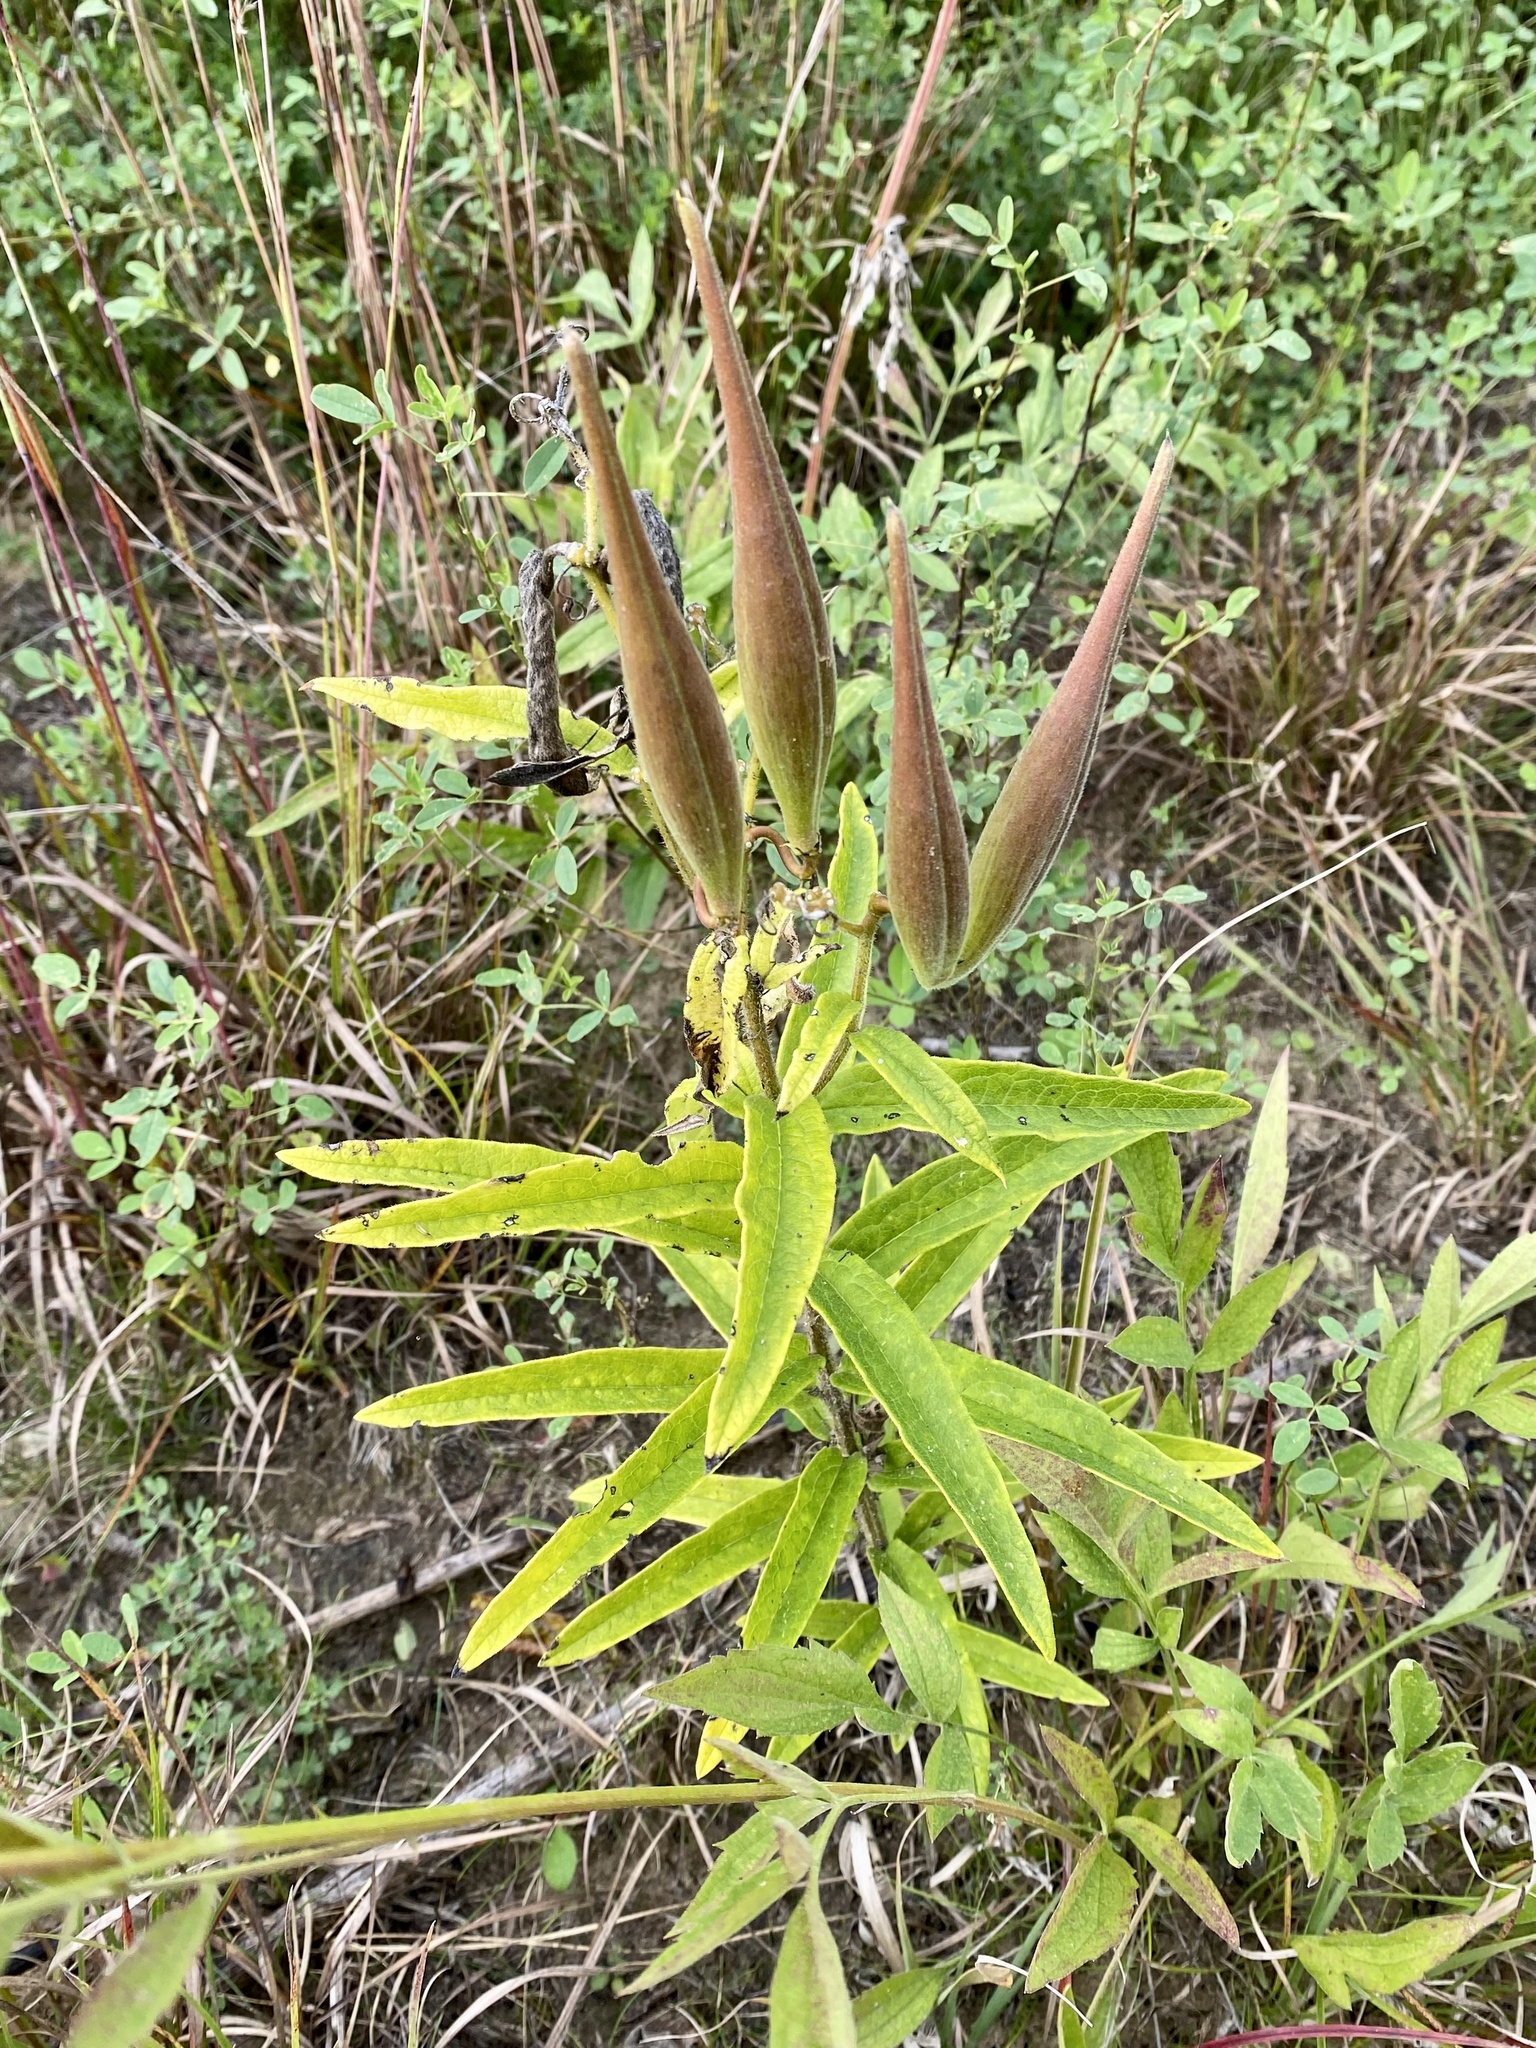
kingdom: Plantae
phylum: Tracheophyta
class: Magnoliopsida
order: Gentianales
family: Apocynaceae
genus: Asclepias
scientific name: Asclepias tuberosa
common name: Butterfly milkweed
